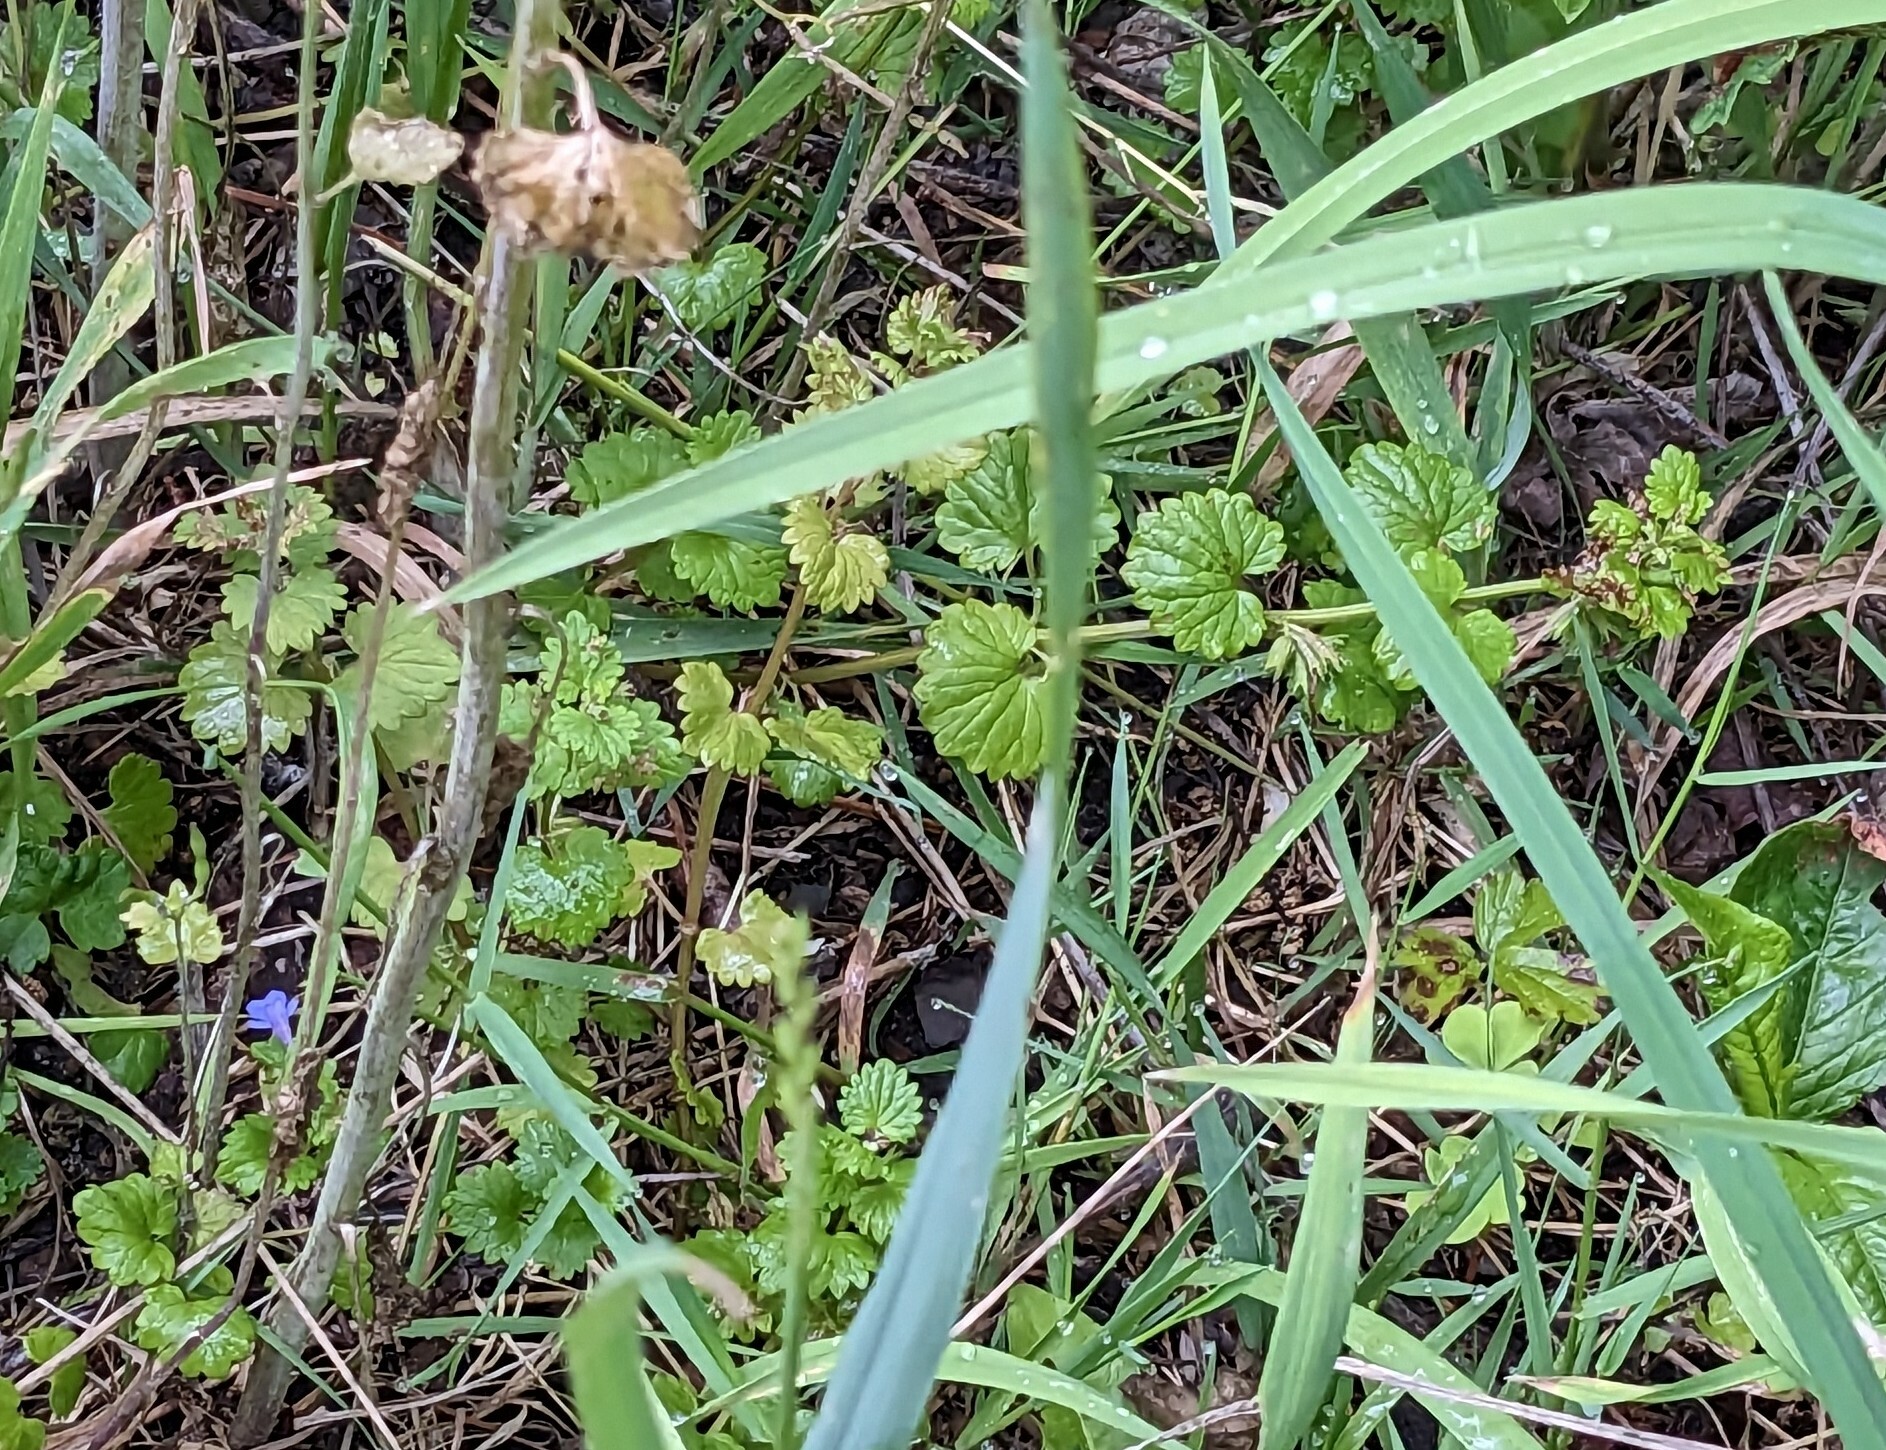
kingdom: Plantae
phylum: Tracheophyta
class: Magnoliopsida
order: Lamiales
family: Lamiaceae
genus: Glechoma
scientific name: Glechoma hederacea
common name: Ground ivy
